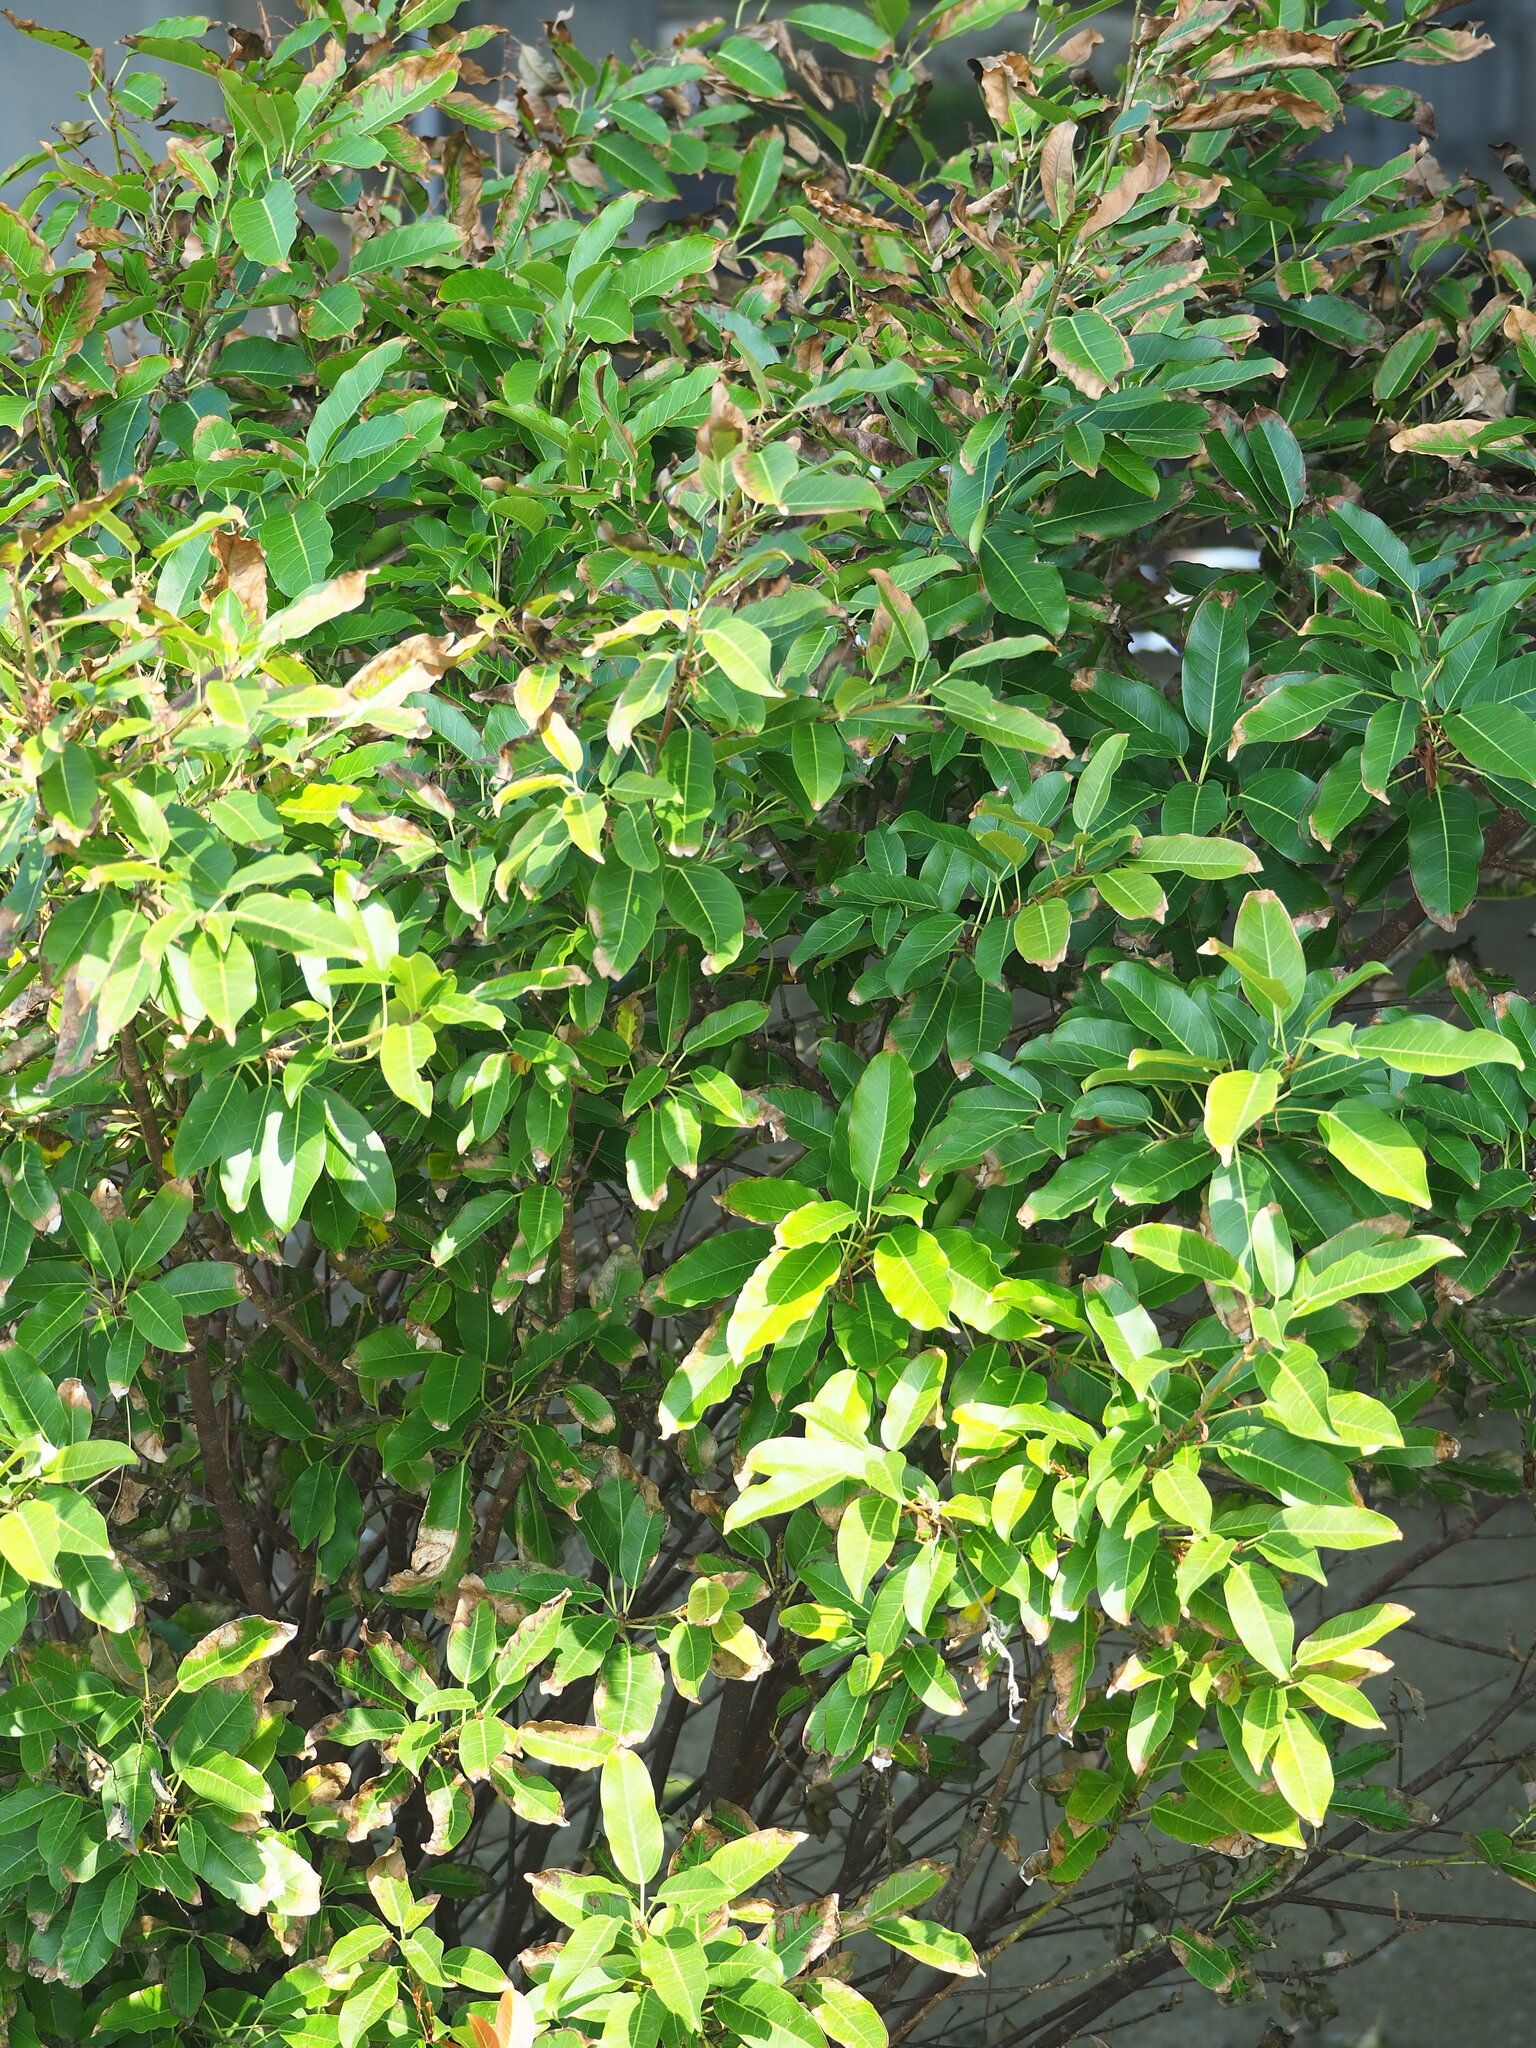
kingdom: Plantae
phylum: Tracheophyta
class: Magnoliopsida
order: Rosales
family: Moraceae
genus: Ficus
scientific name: Ficus subpisocarpa
